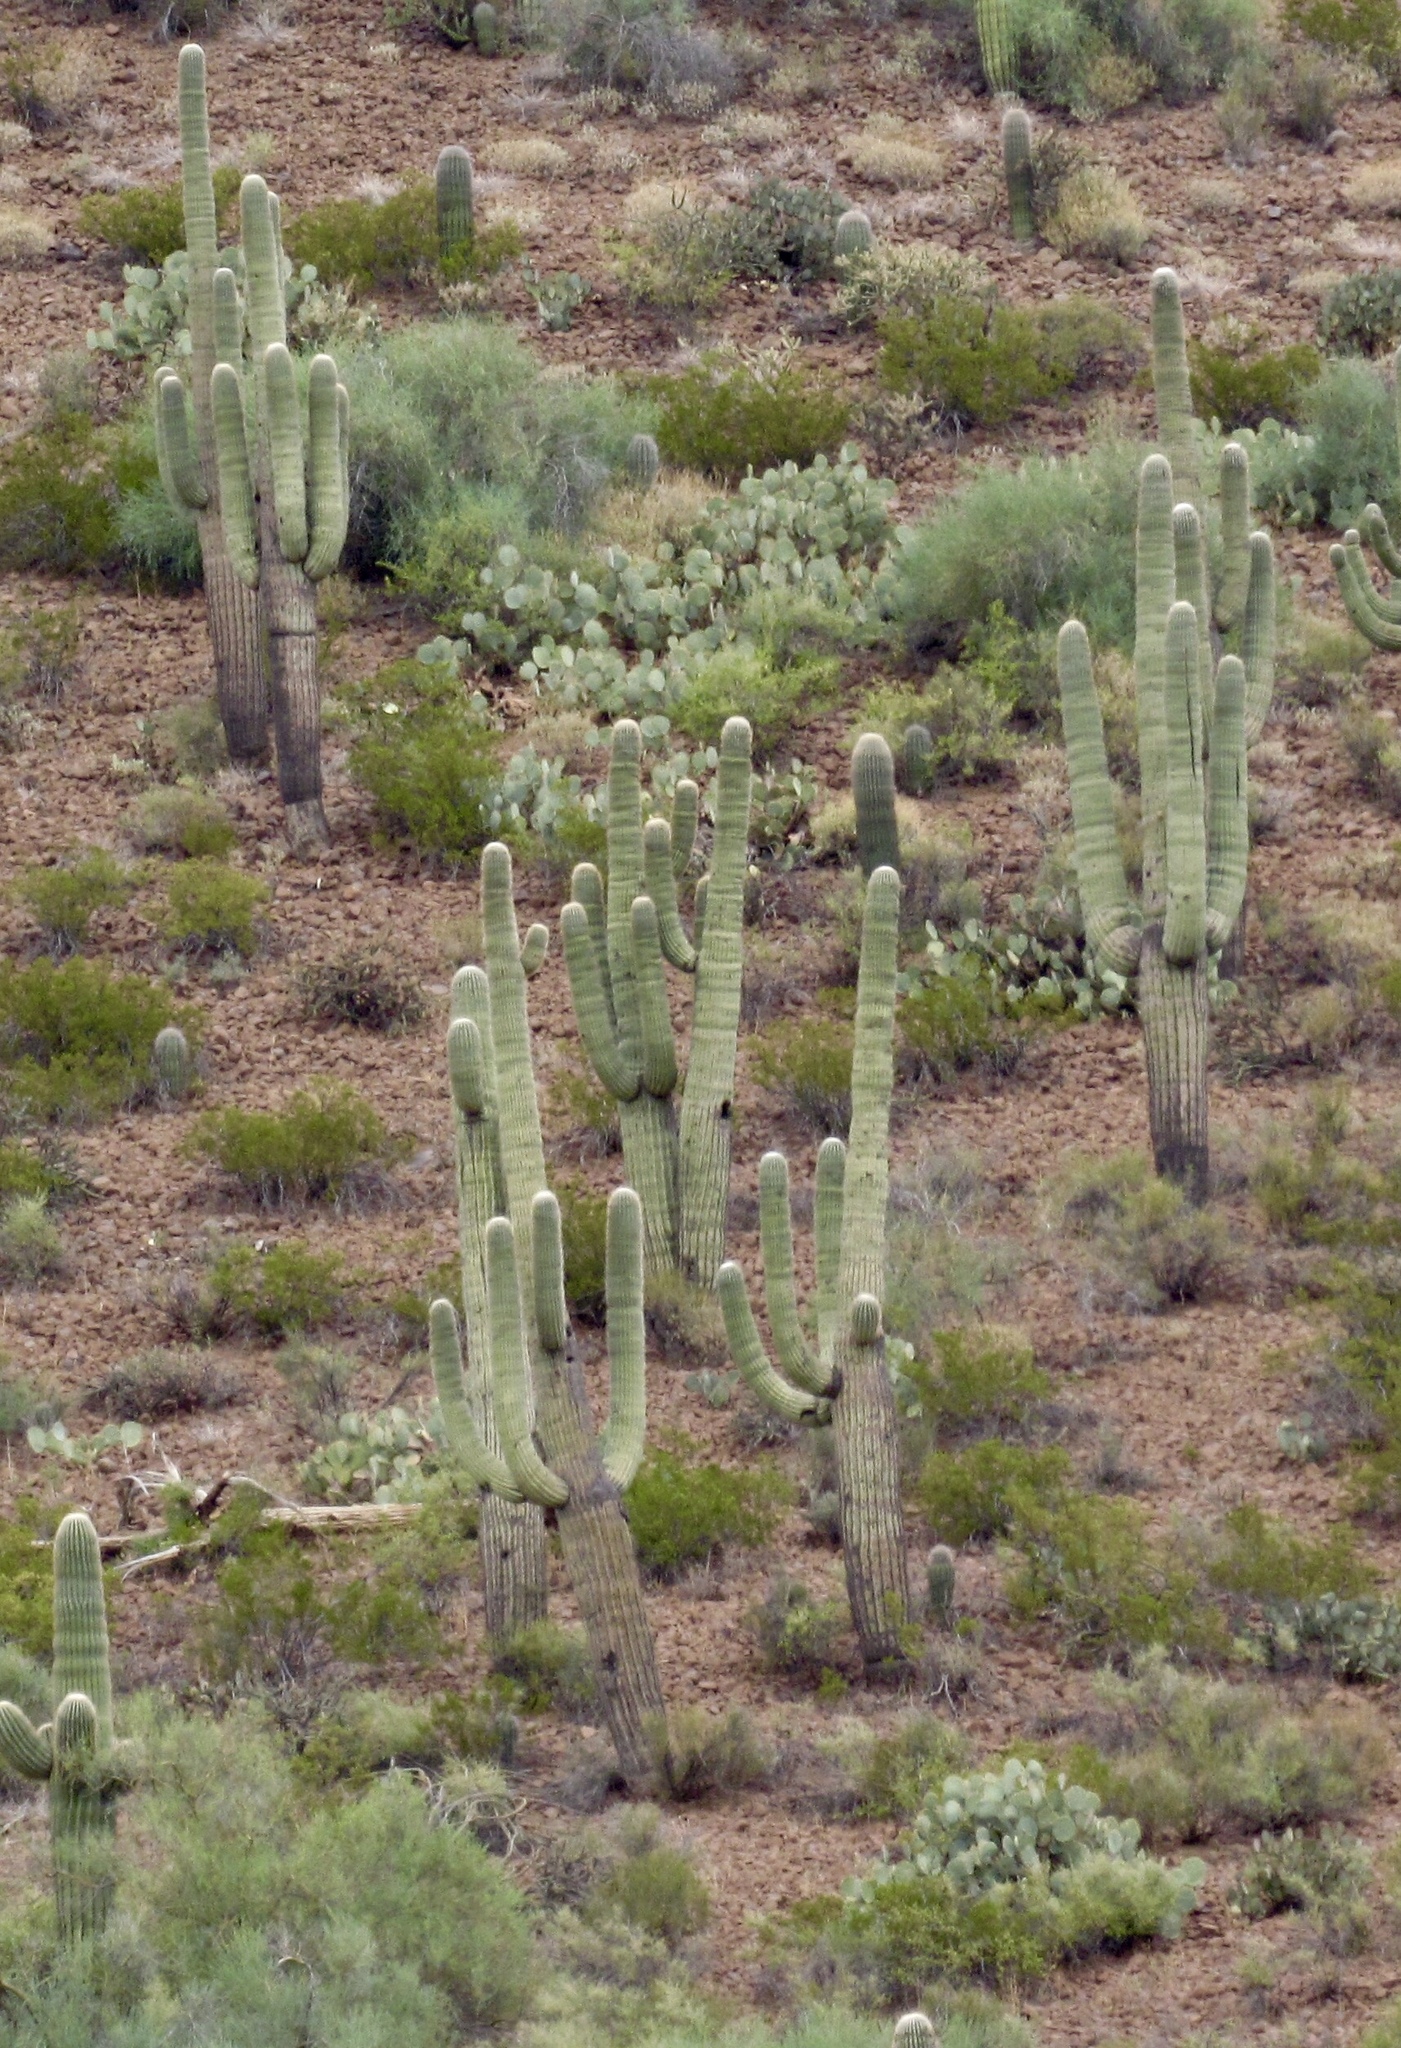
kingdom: Plantae
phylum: Tracheophyta
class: Magnoliopsida
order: Caryophyllales
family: Cactaceae
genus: Carnegiea
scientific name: Carnegiea gigantea
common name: Saguaro
